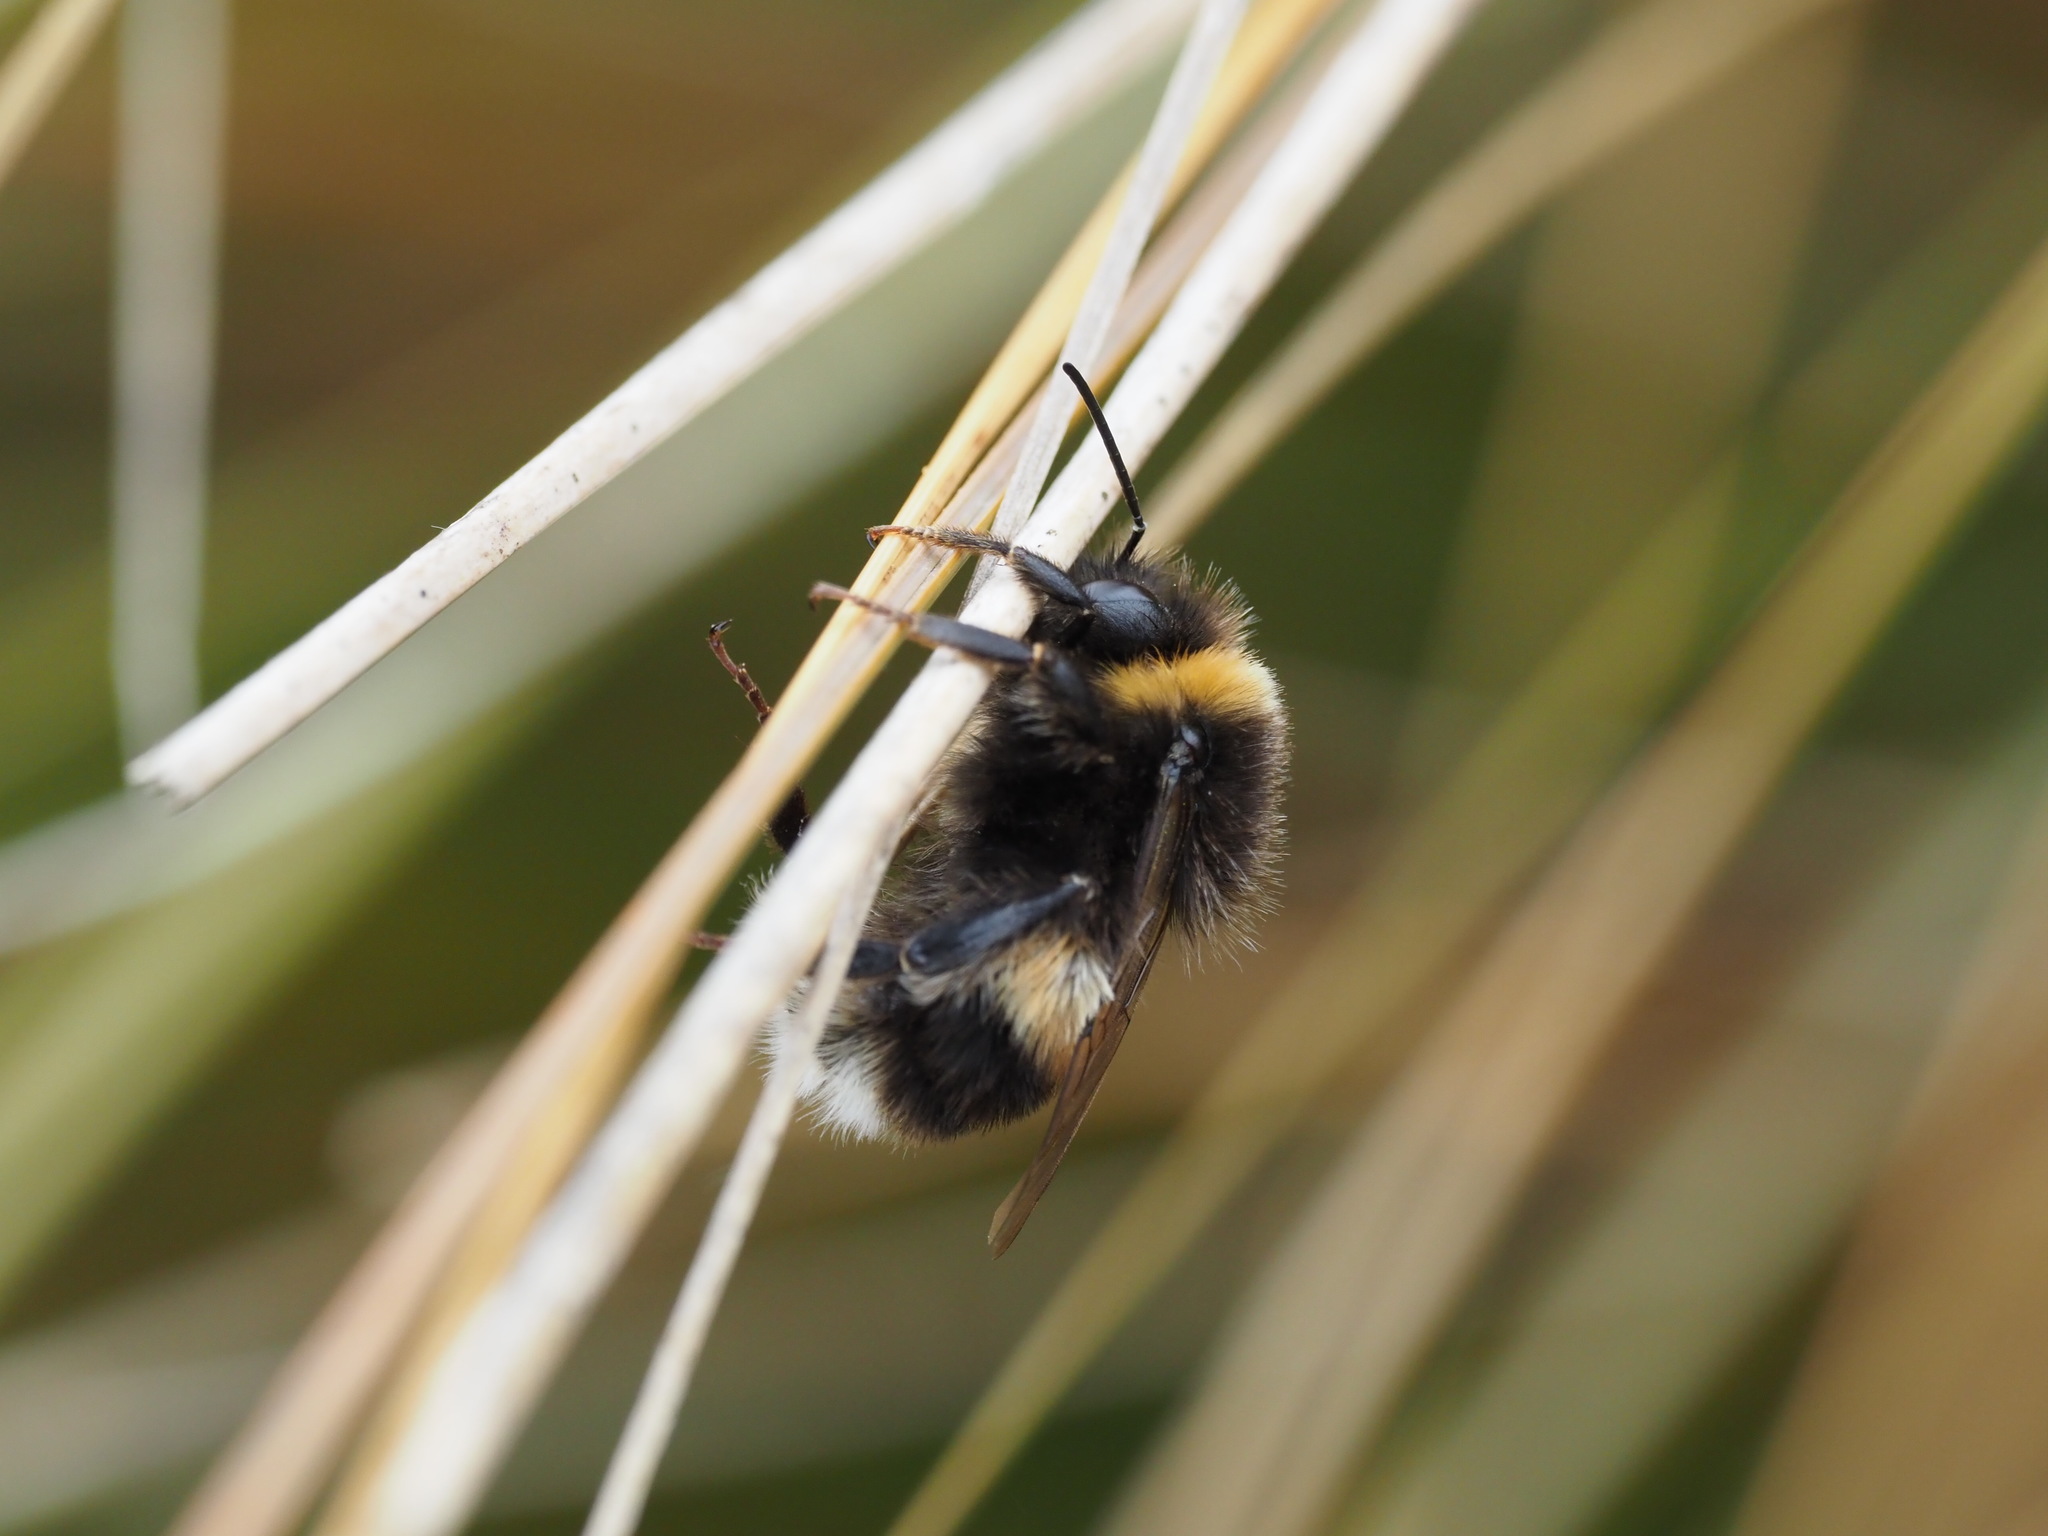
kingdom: Animalia
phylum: Arthropoda
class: Insecta
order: Hymenoptera
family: Apidae
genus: Bombus
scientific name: Bombus terrestris
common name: Buff-tailed bumblebee
